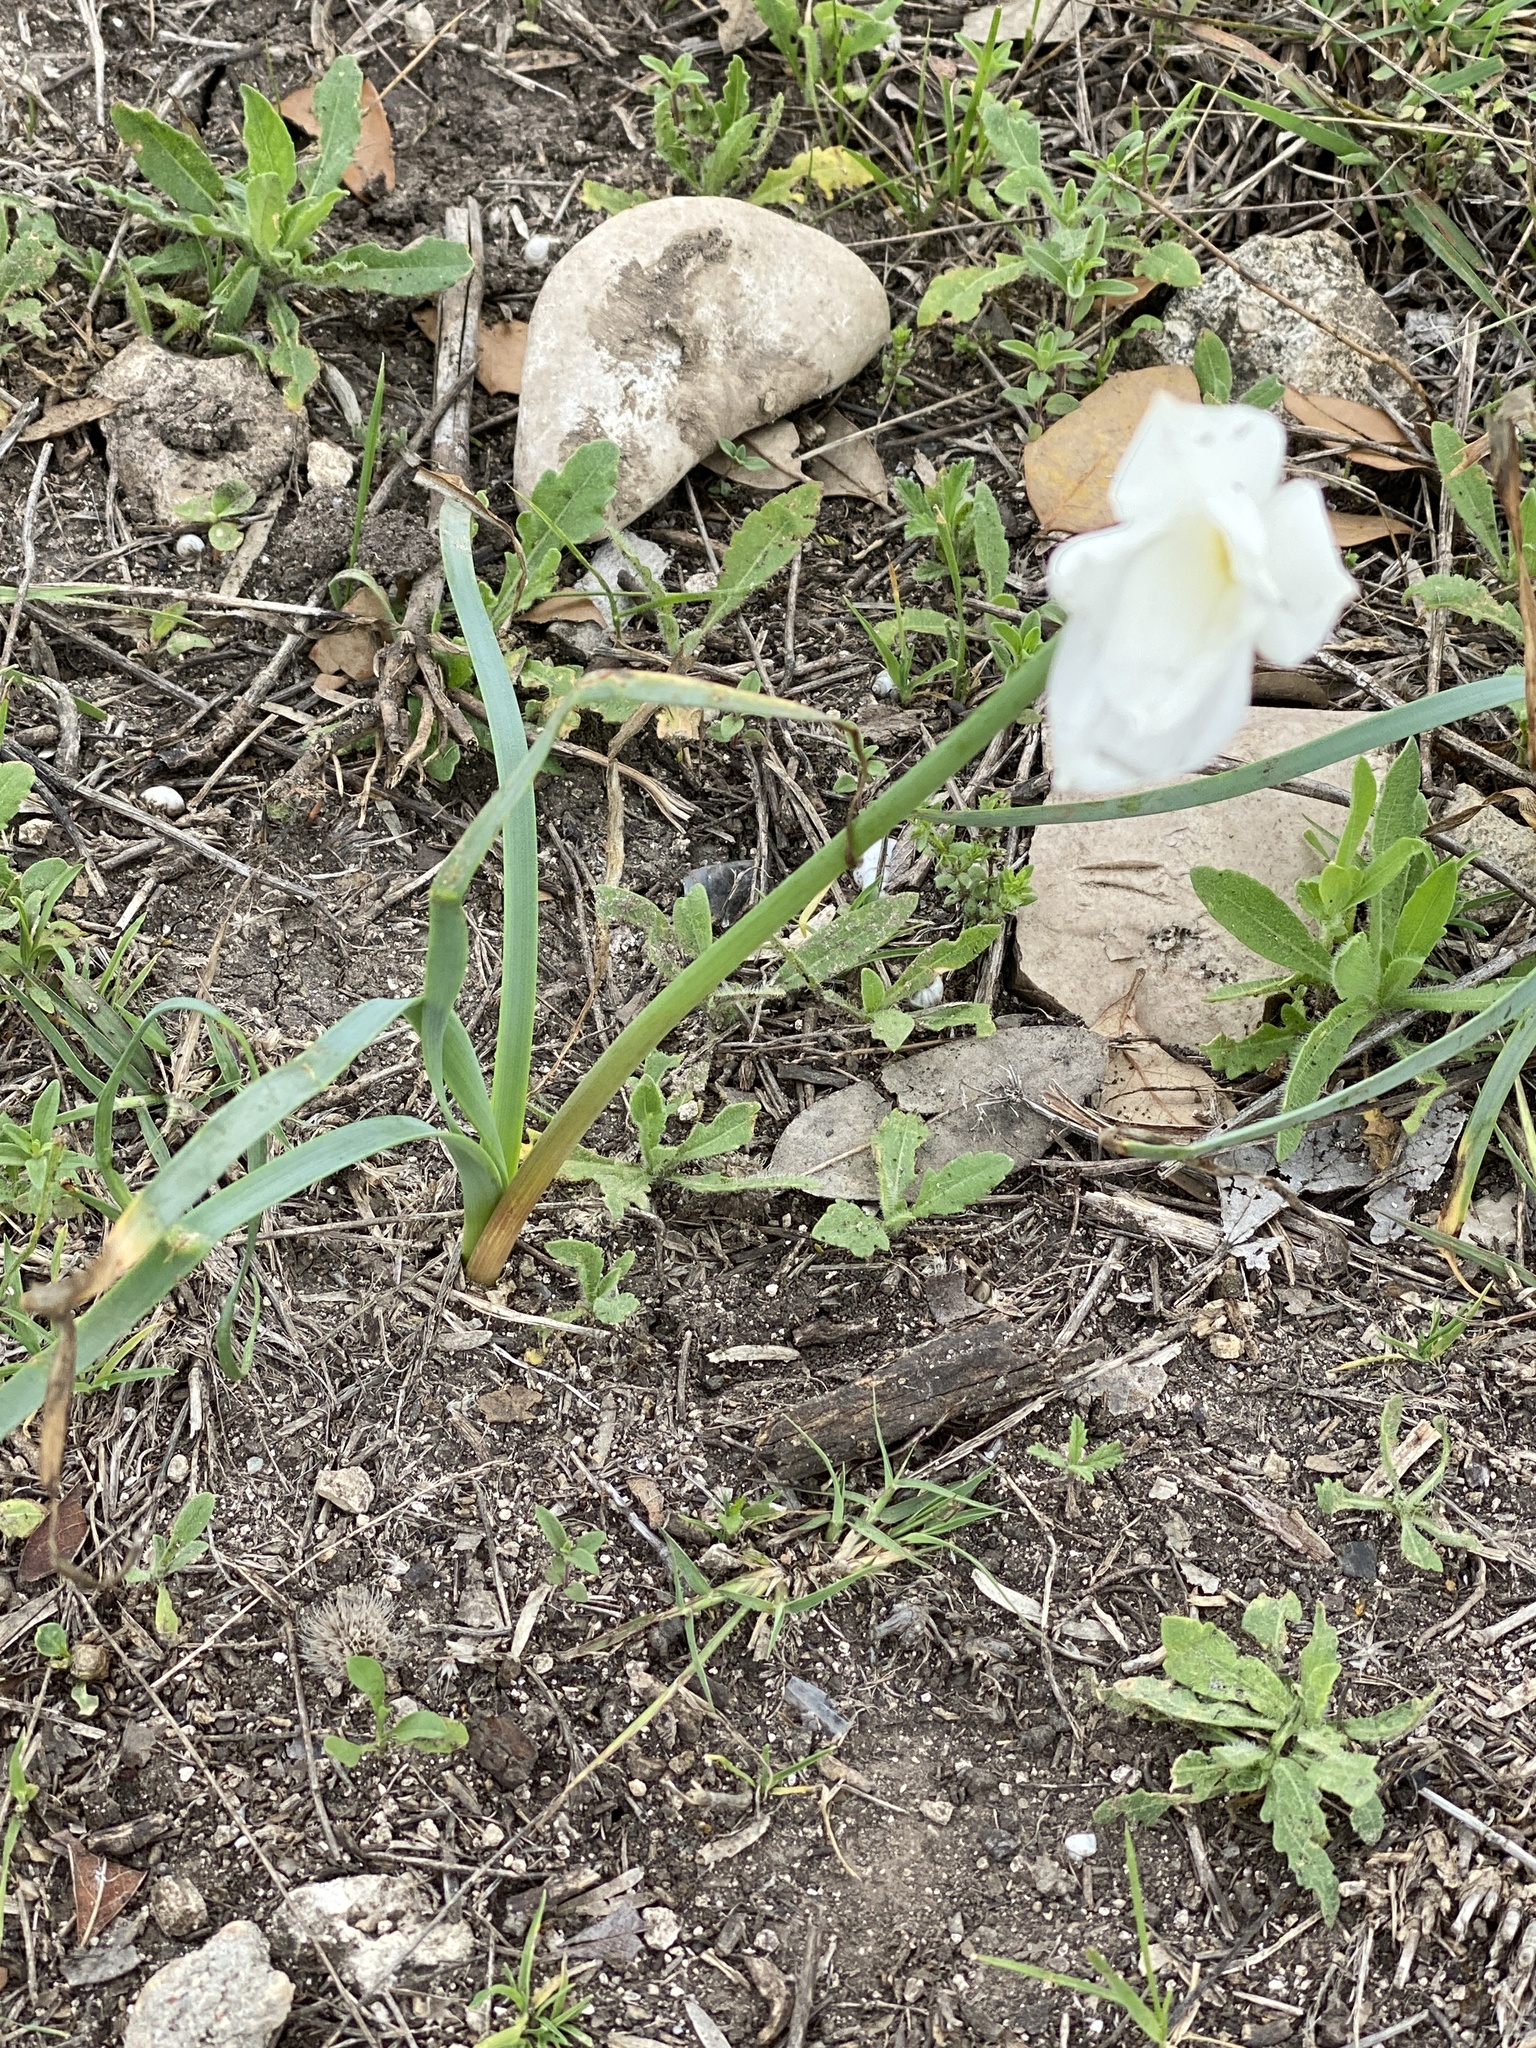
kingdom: Plantae
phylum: Tracheophyta
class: Liliopsida
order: Asparagales
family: Amaryllidaceae
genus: Zephyranthes
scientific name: Zephyranthes drummondii
